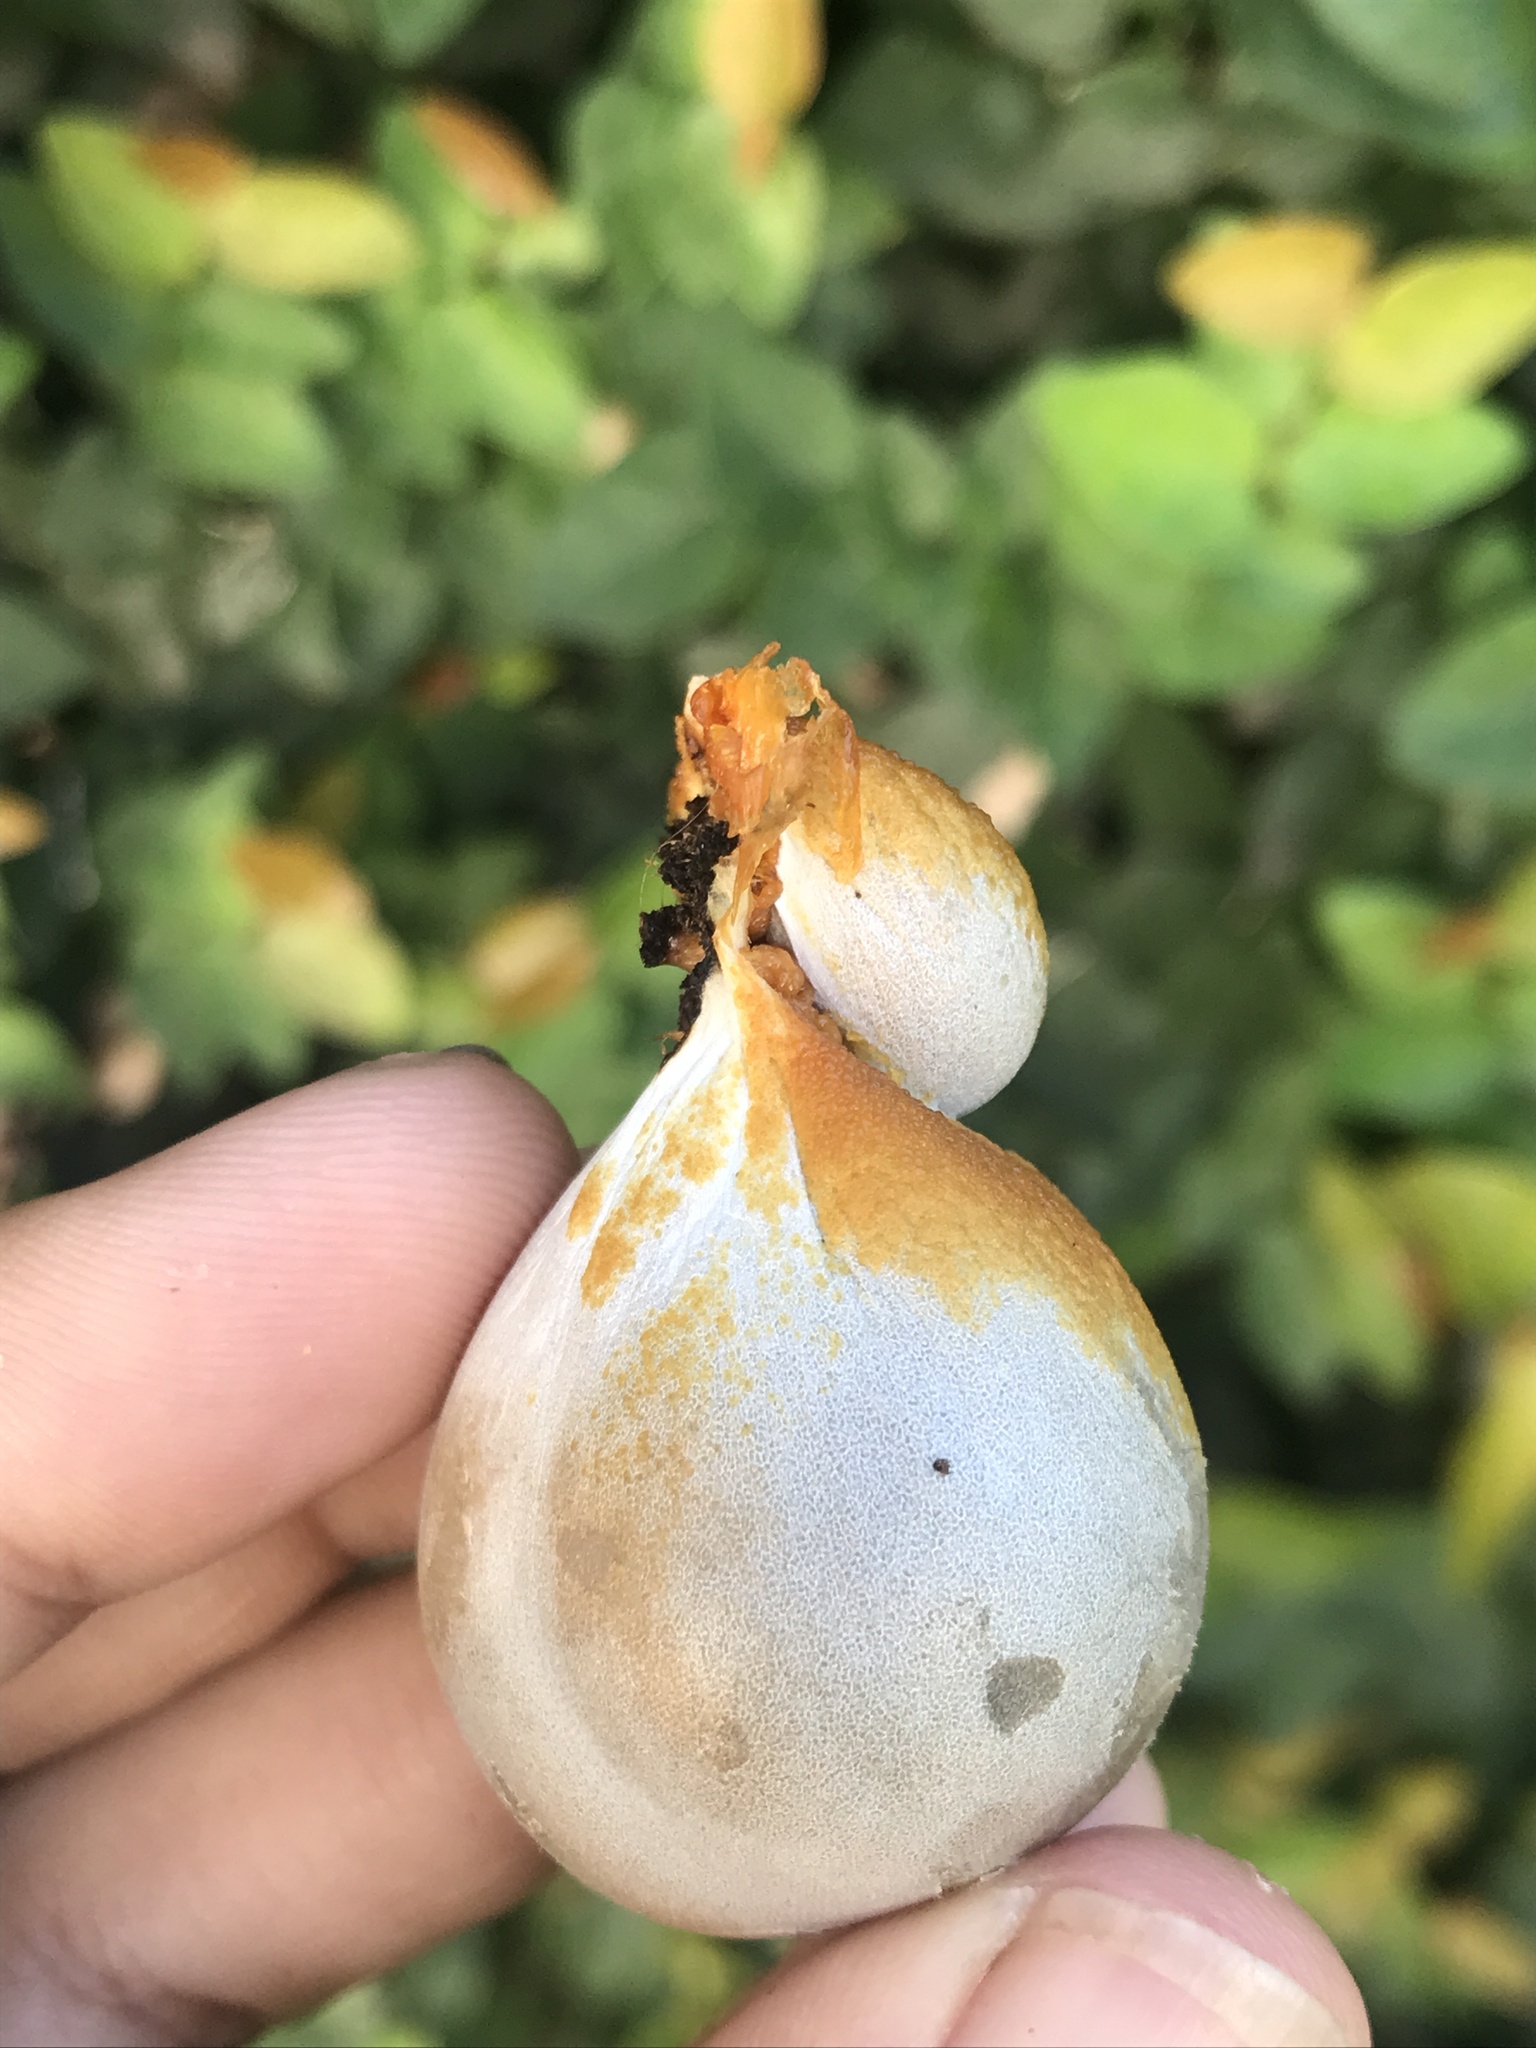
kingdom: Protozoa
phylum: Mycetozoa
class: Myxomycetes
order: Cribrariales
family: Tubiferaceae
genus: Lycogala
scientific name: Lycogala flavofuscum
